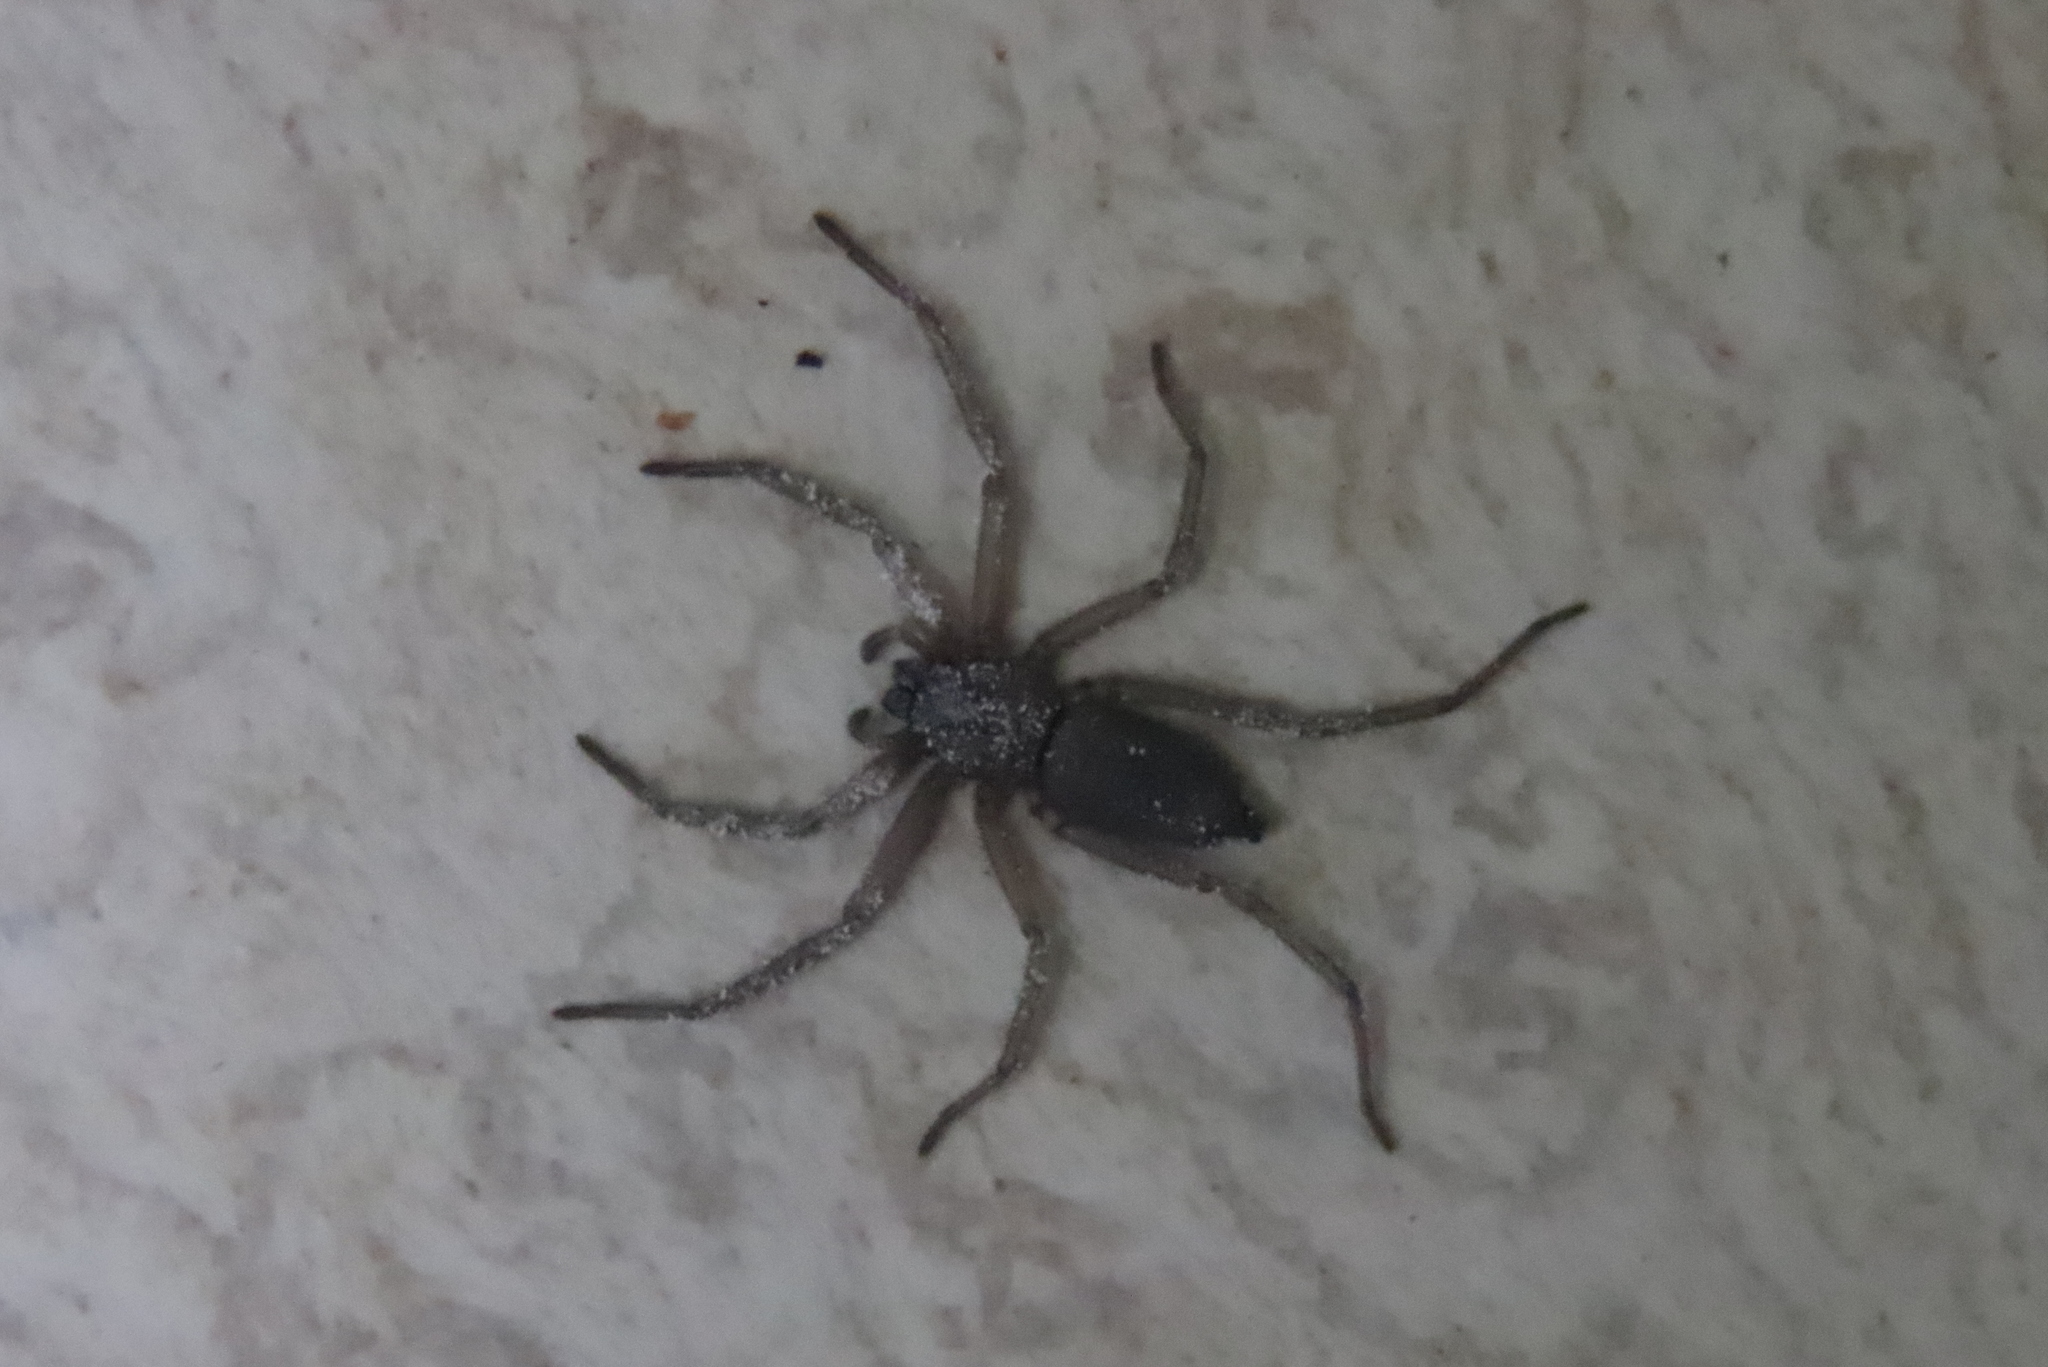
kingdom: Animalia
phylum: Arthropoda
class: Arachnida
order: Araneae
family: Trochanteriidae
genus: Hemicloea
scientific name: Hemicloea rogenhoferi
